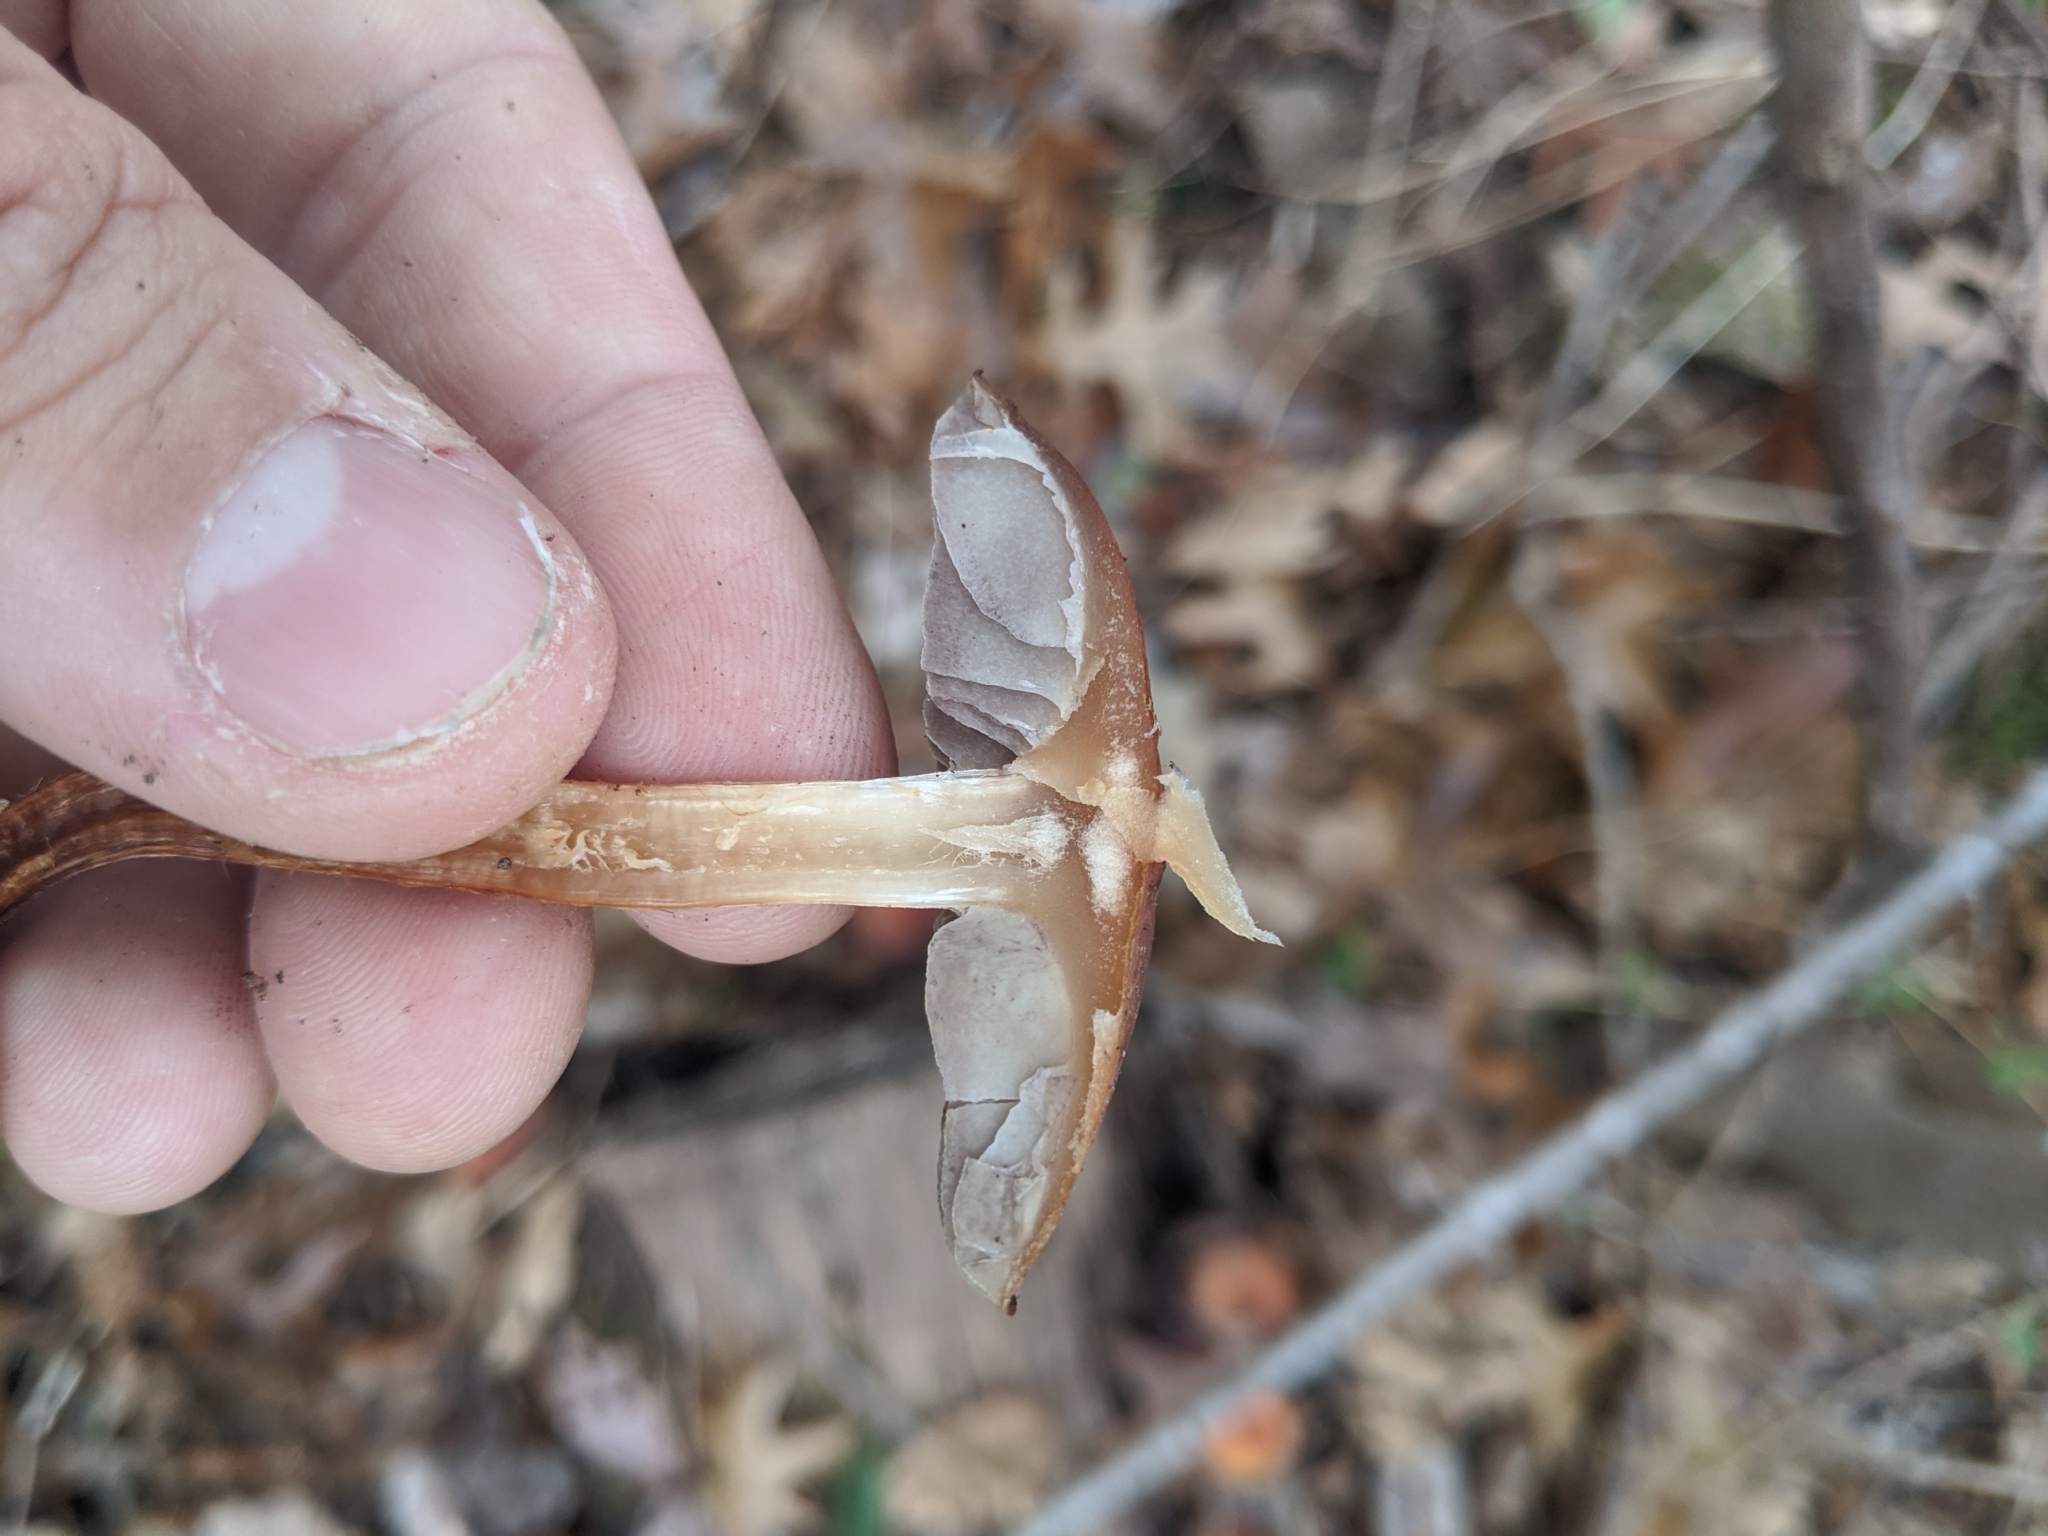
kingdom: Fungi
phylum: Basidiomycota
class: Agaricomycetes
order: Agaricales
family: Strophariaceae
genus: Hypholoma
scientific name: Hypholoma lateritium
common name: Brick caps
